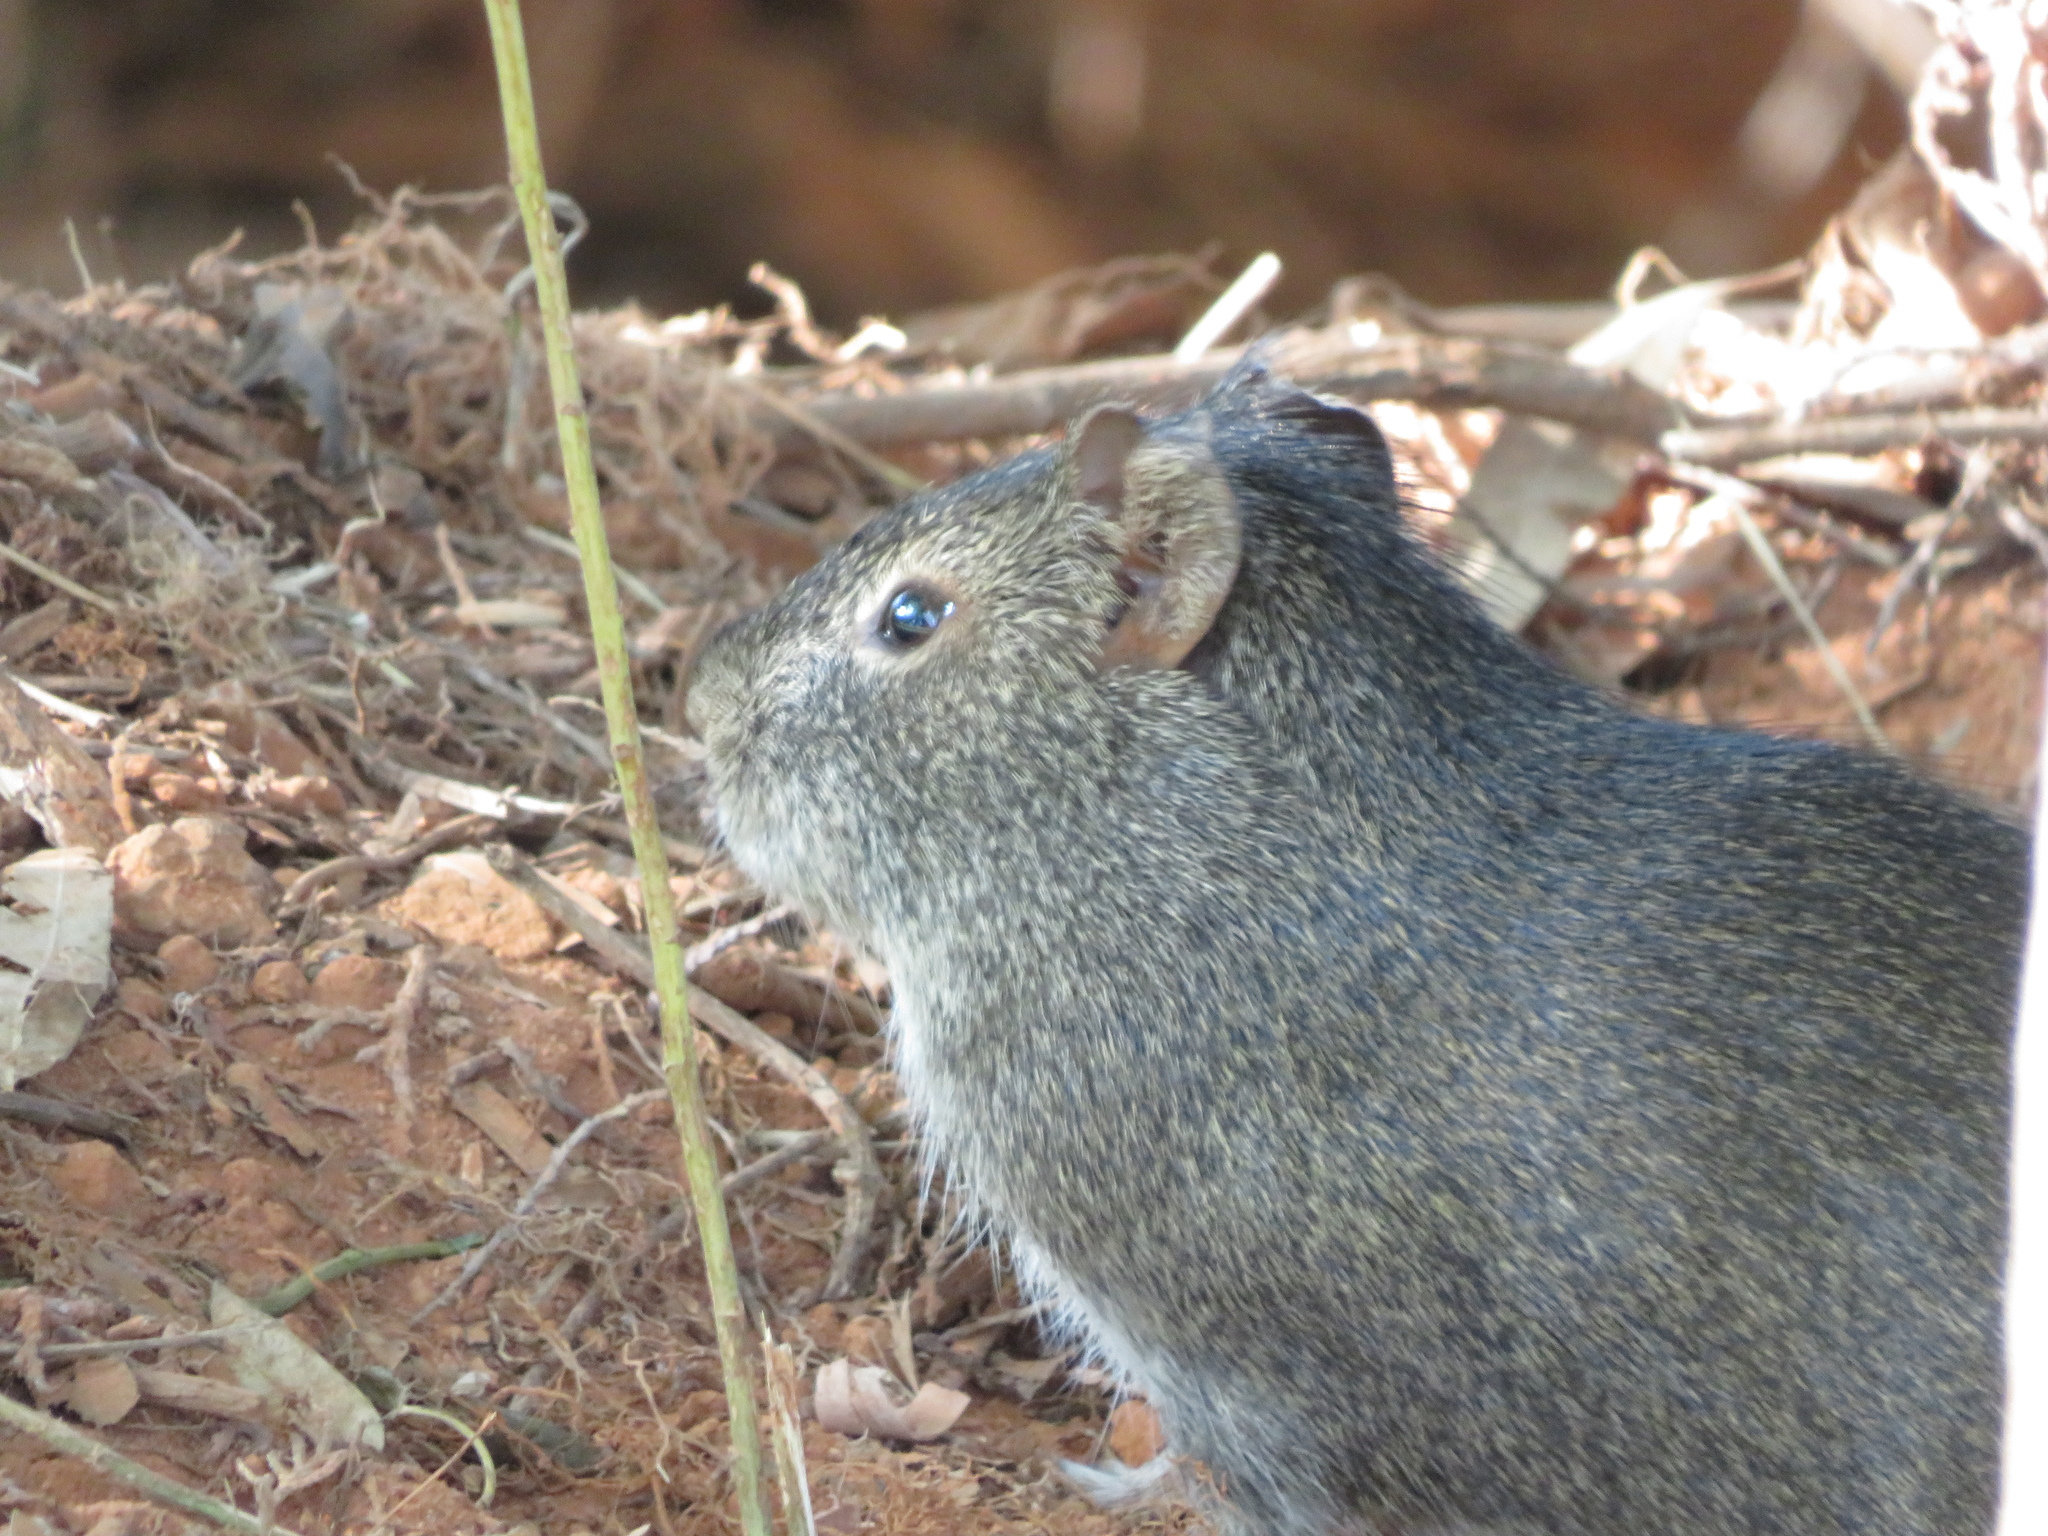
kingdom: Animalia
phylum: Chordata
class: Mammalia
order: Rodentia
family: Caviidae
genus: Cavia
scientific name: Cavia aperea
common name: Brazilian guinea pig
